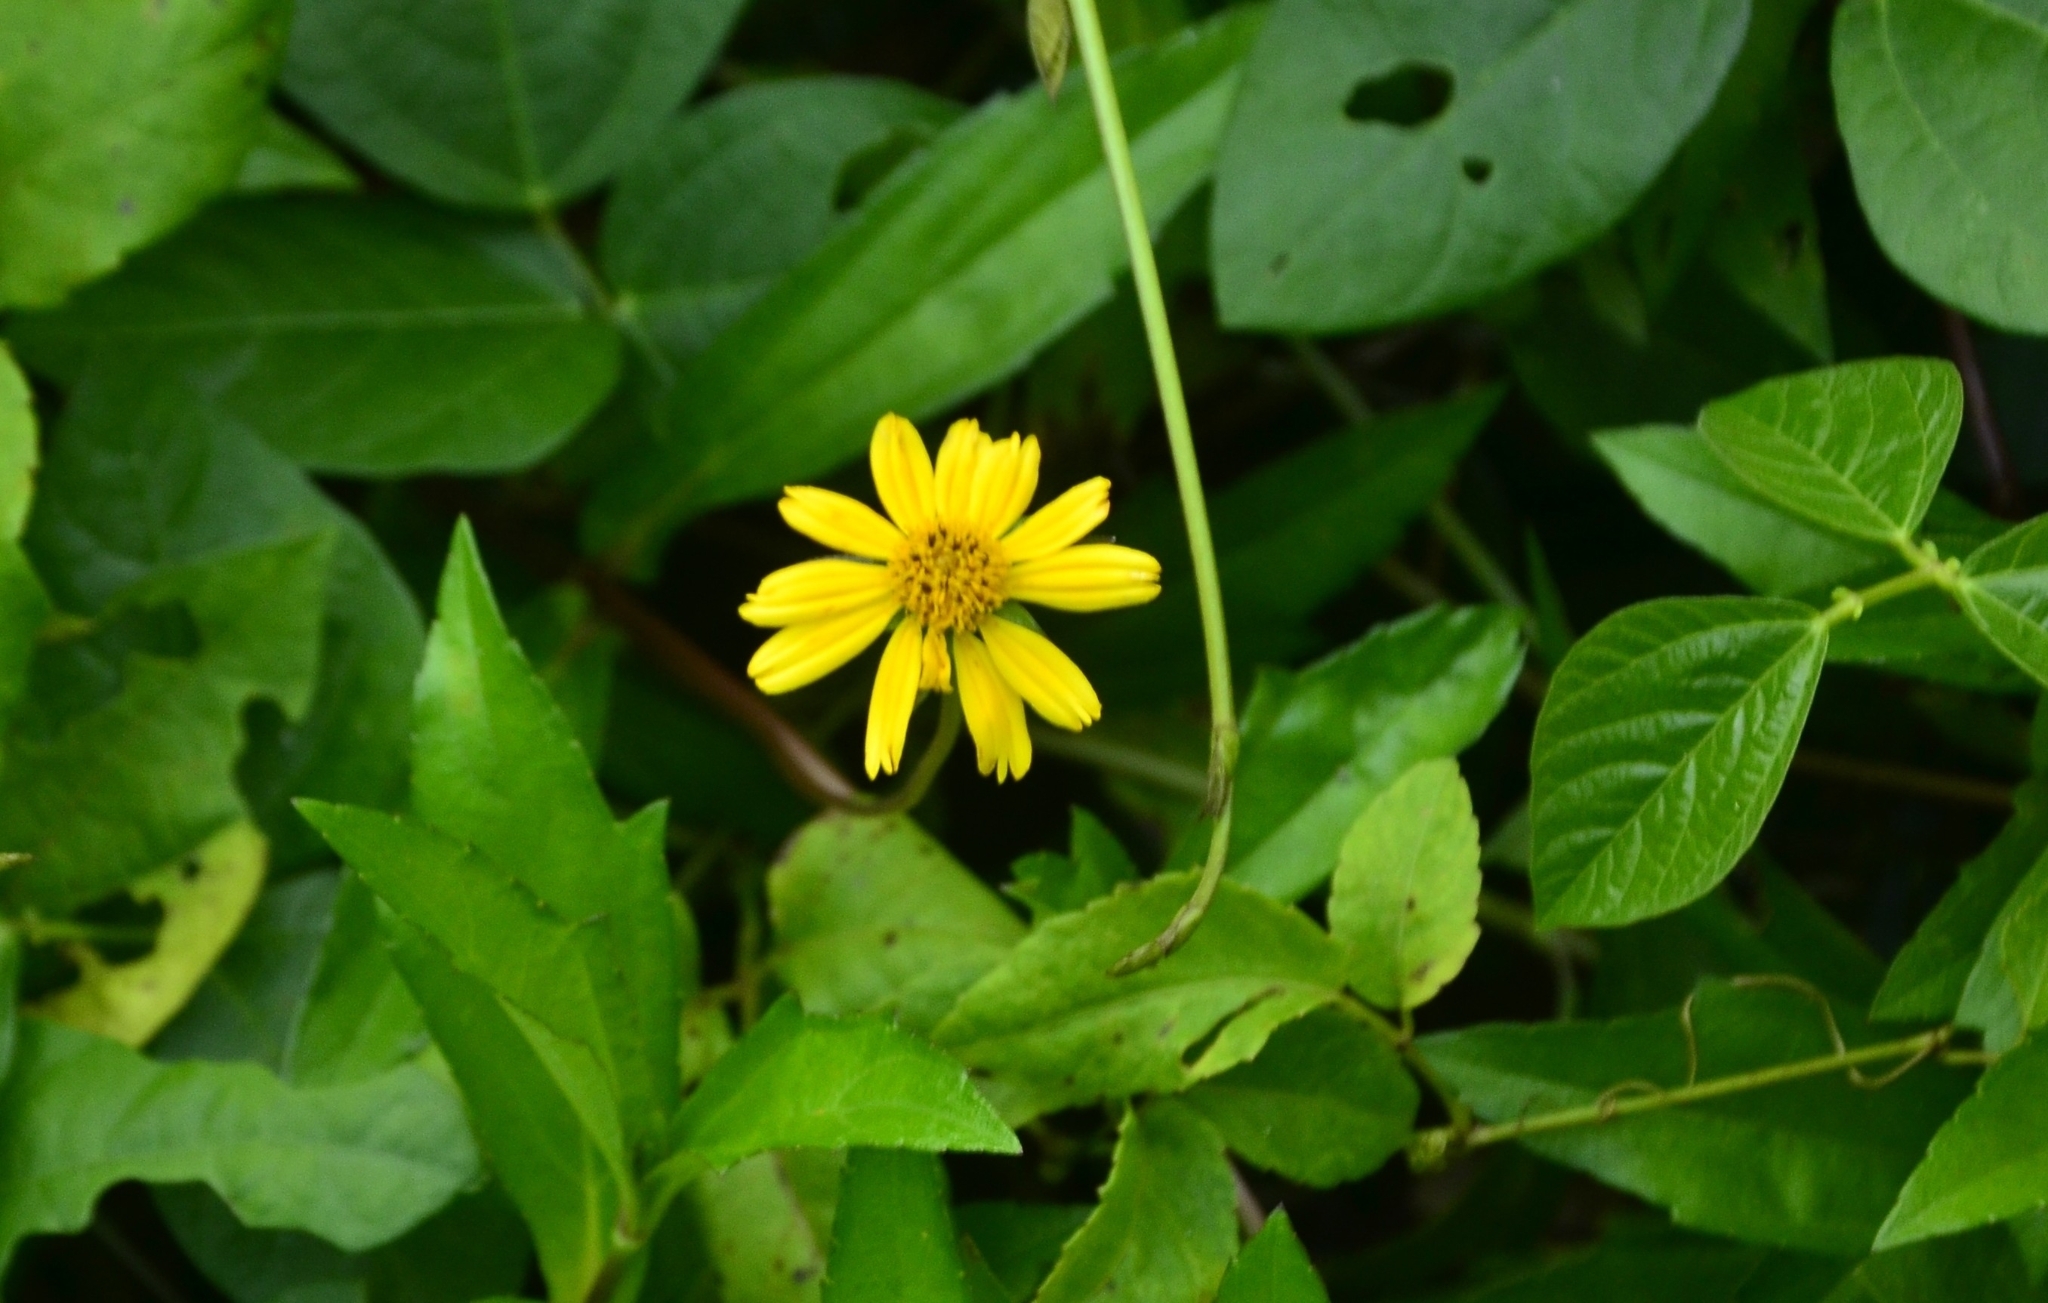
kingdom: Plantae
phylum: Tracheophyta
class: Magnoliopsida
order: Asterales
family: Asteraceae
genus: Sphagneticola
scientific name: Sphagneticola trilobata
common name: Bay biscayne creeping-oxeye
